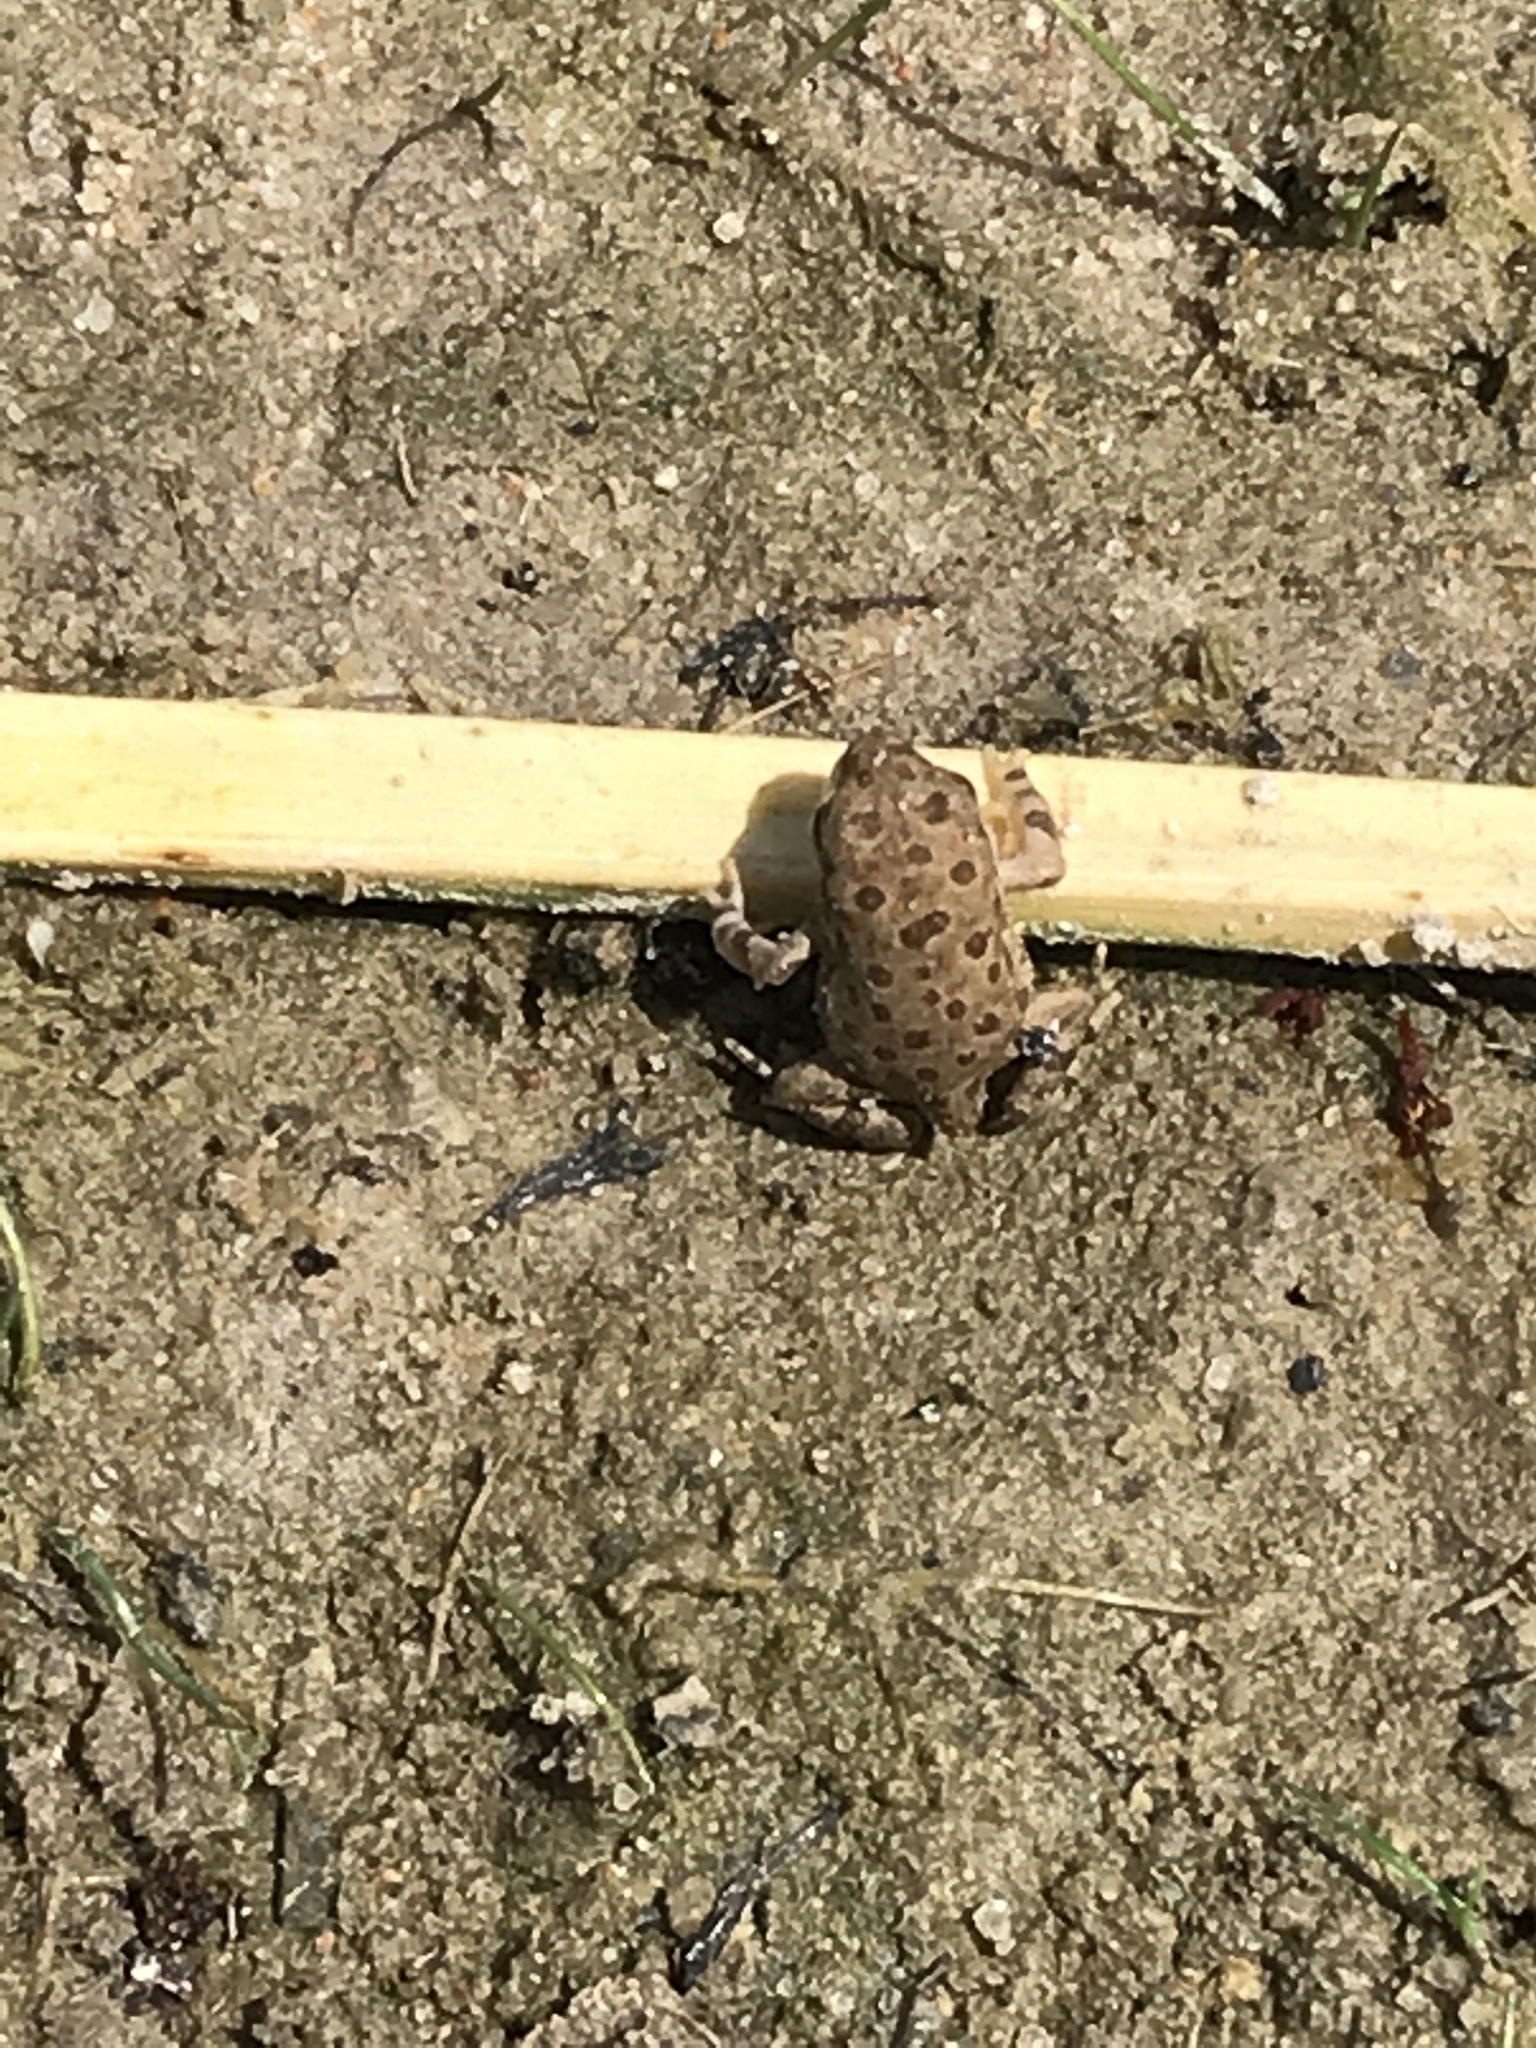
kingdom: Animalia
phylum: Chordata
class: Amphibia
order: Anura
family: Bufonidae
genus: Anaxyrus
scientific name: Anaxyrus woodhousii
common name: Woodhouse's toad
